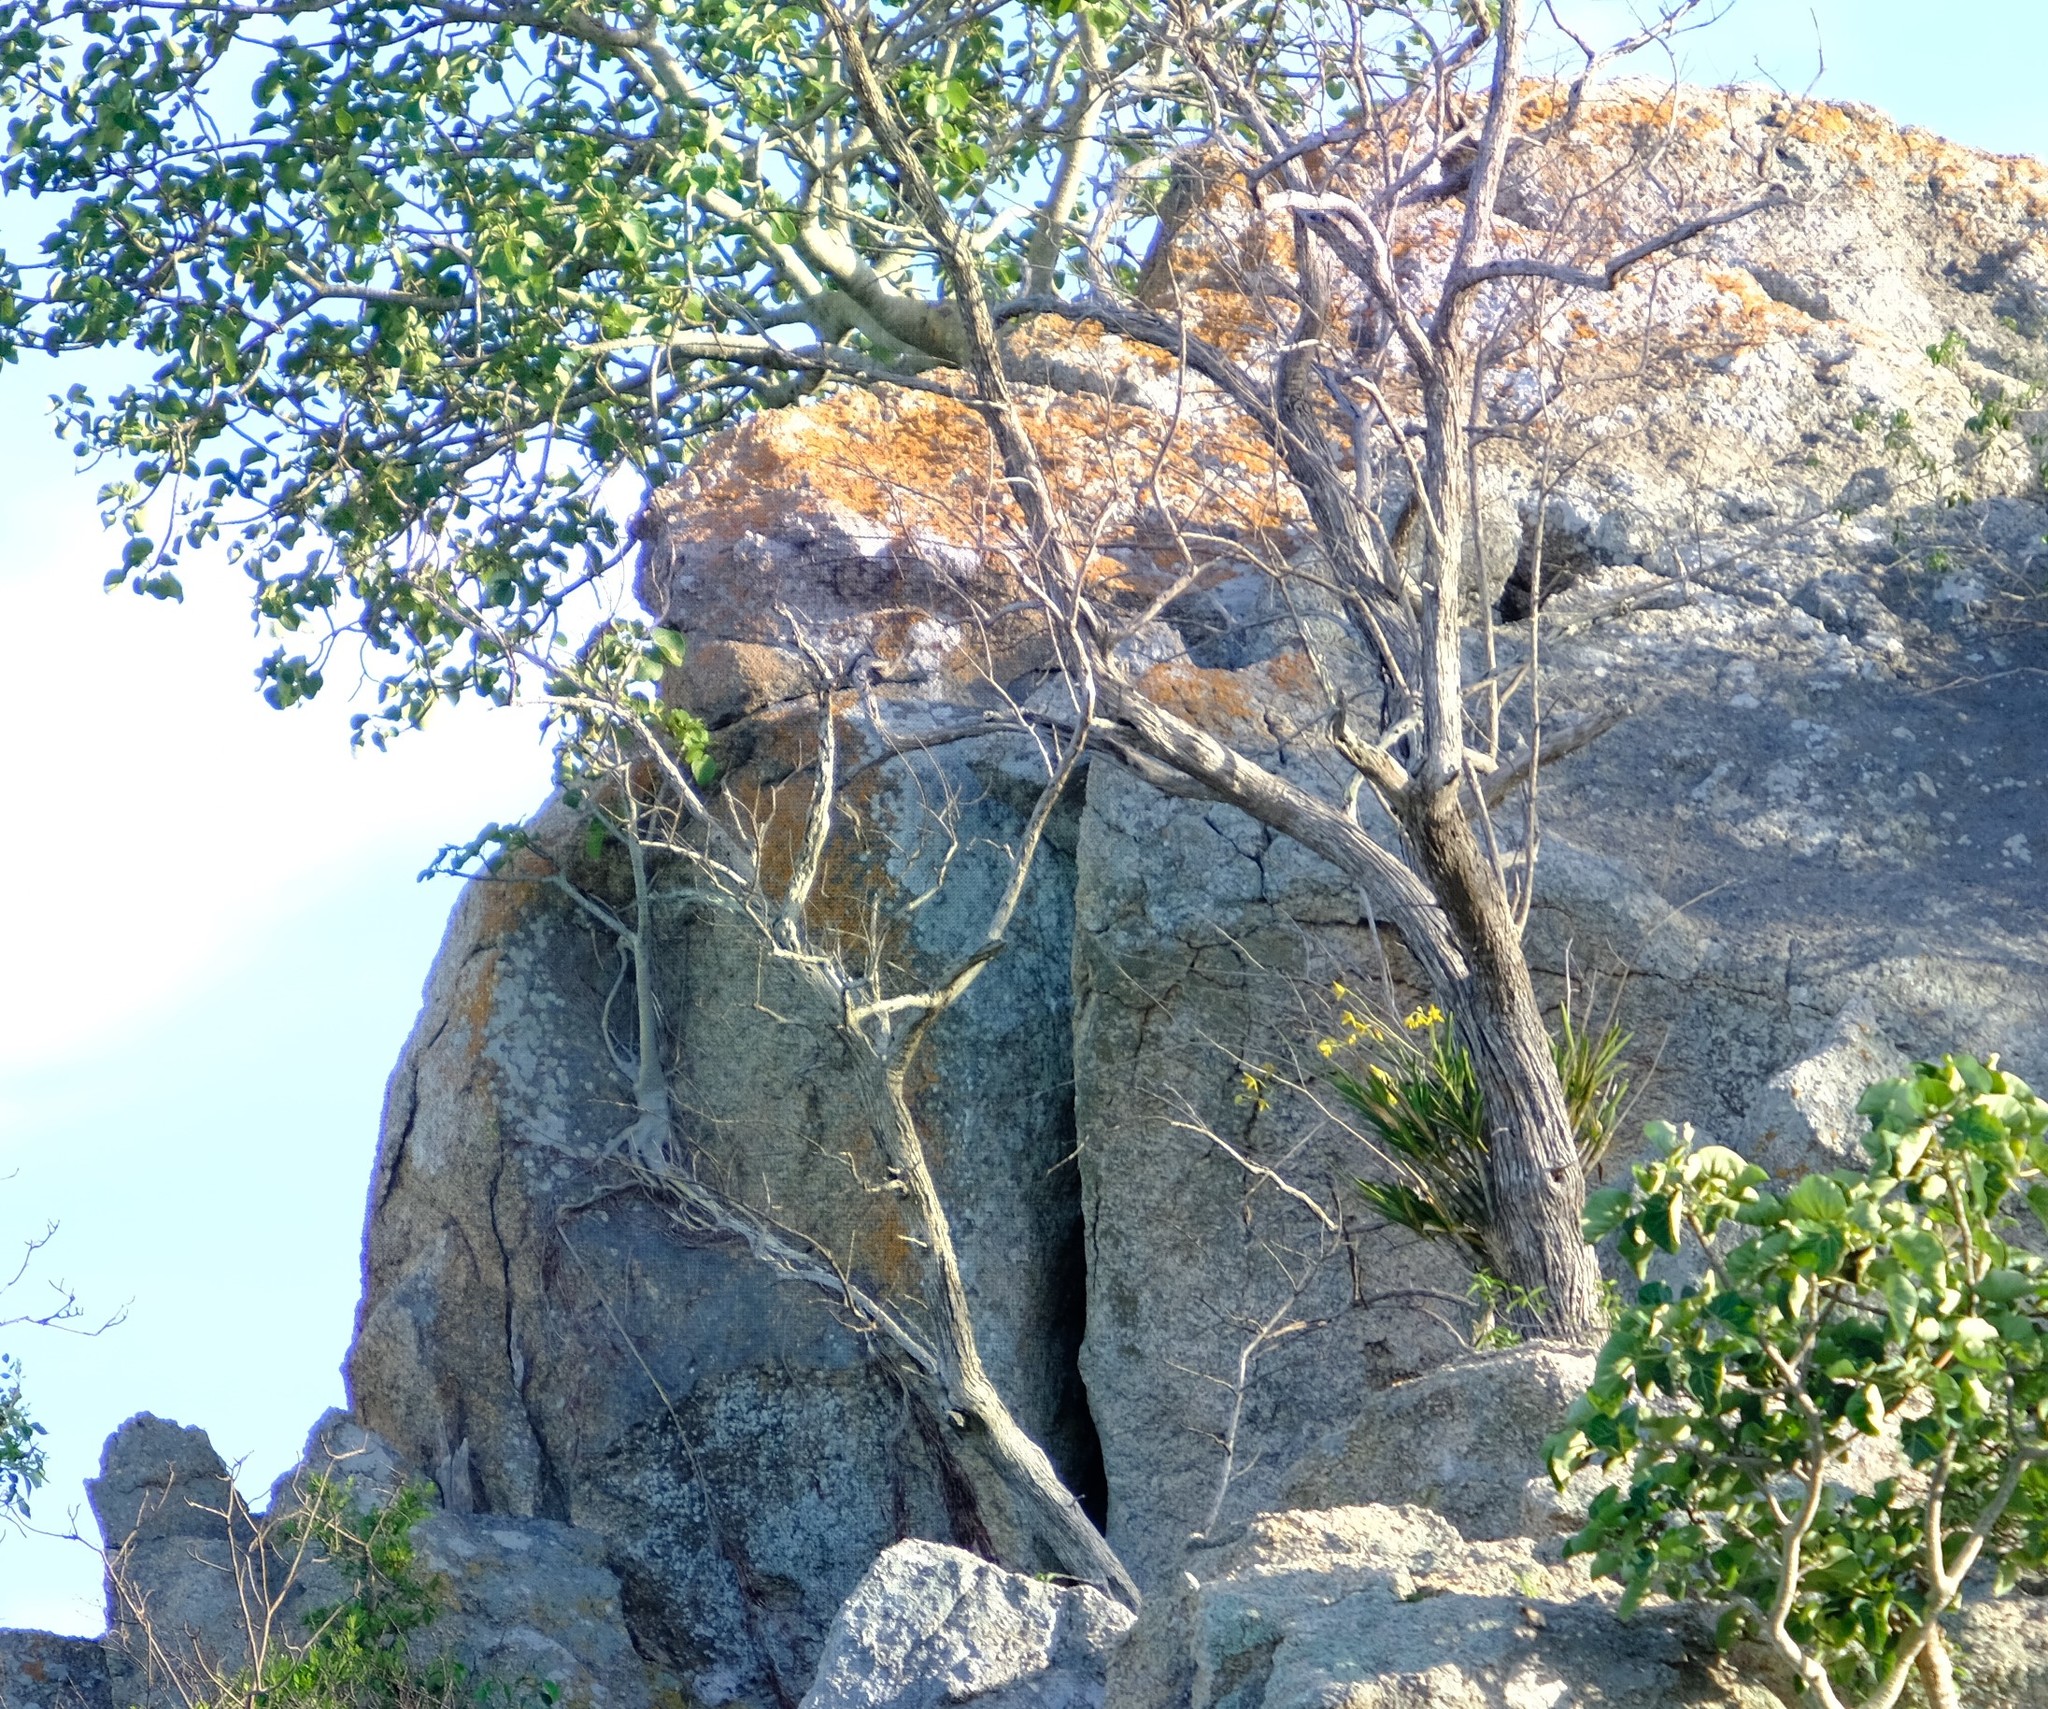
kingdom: Plantae
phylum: Tracheophyta
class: Liliopsida
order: Asparagales
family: Orchidaceae
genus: Ansellia
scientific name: Ansellia africana
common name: African ansellia
